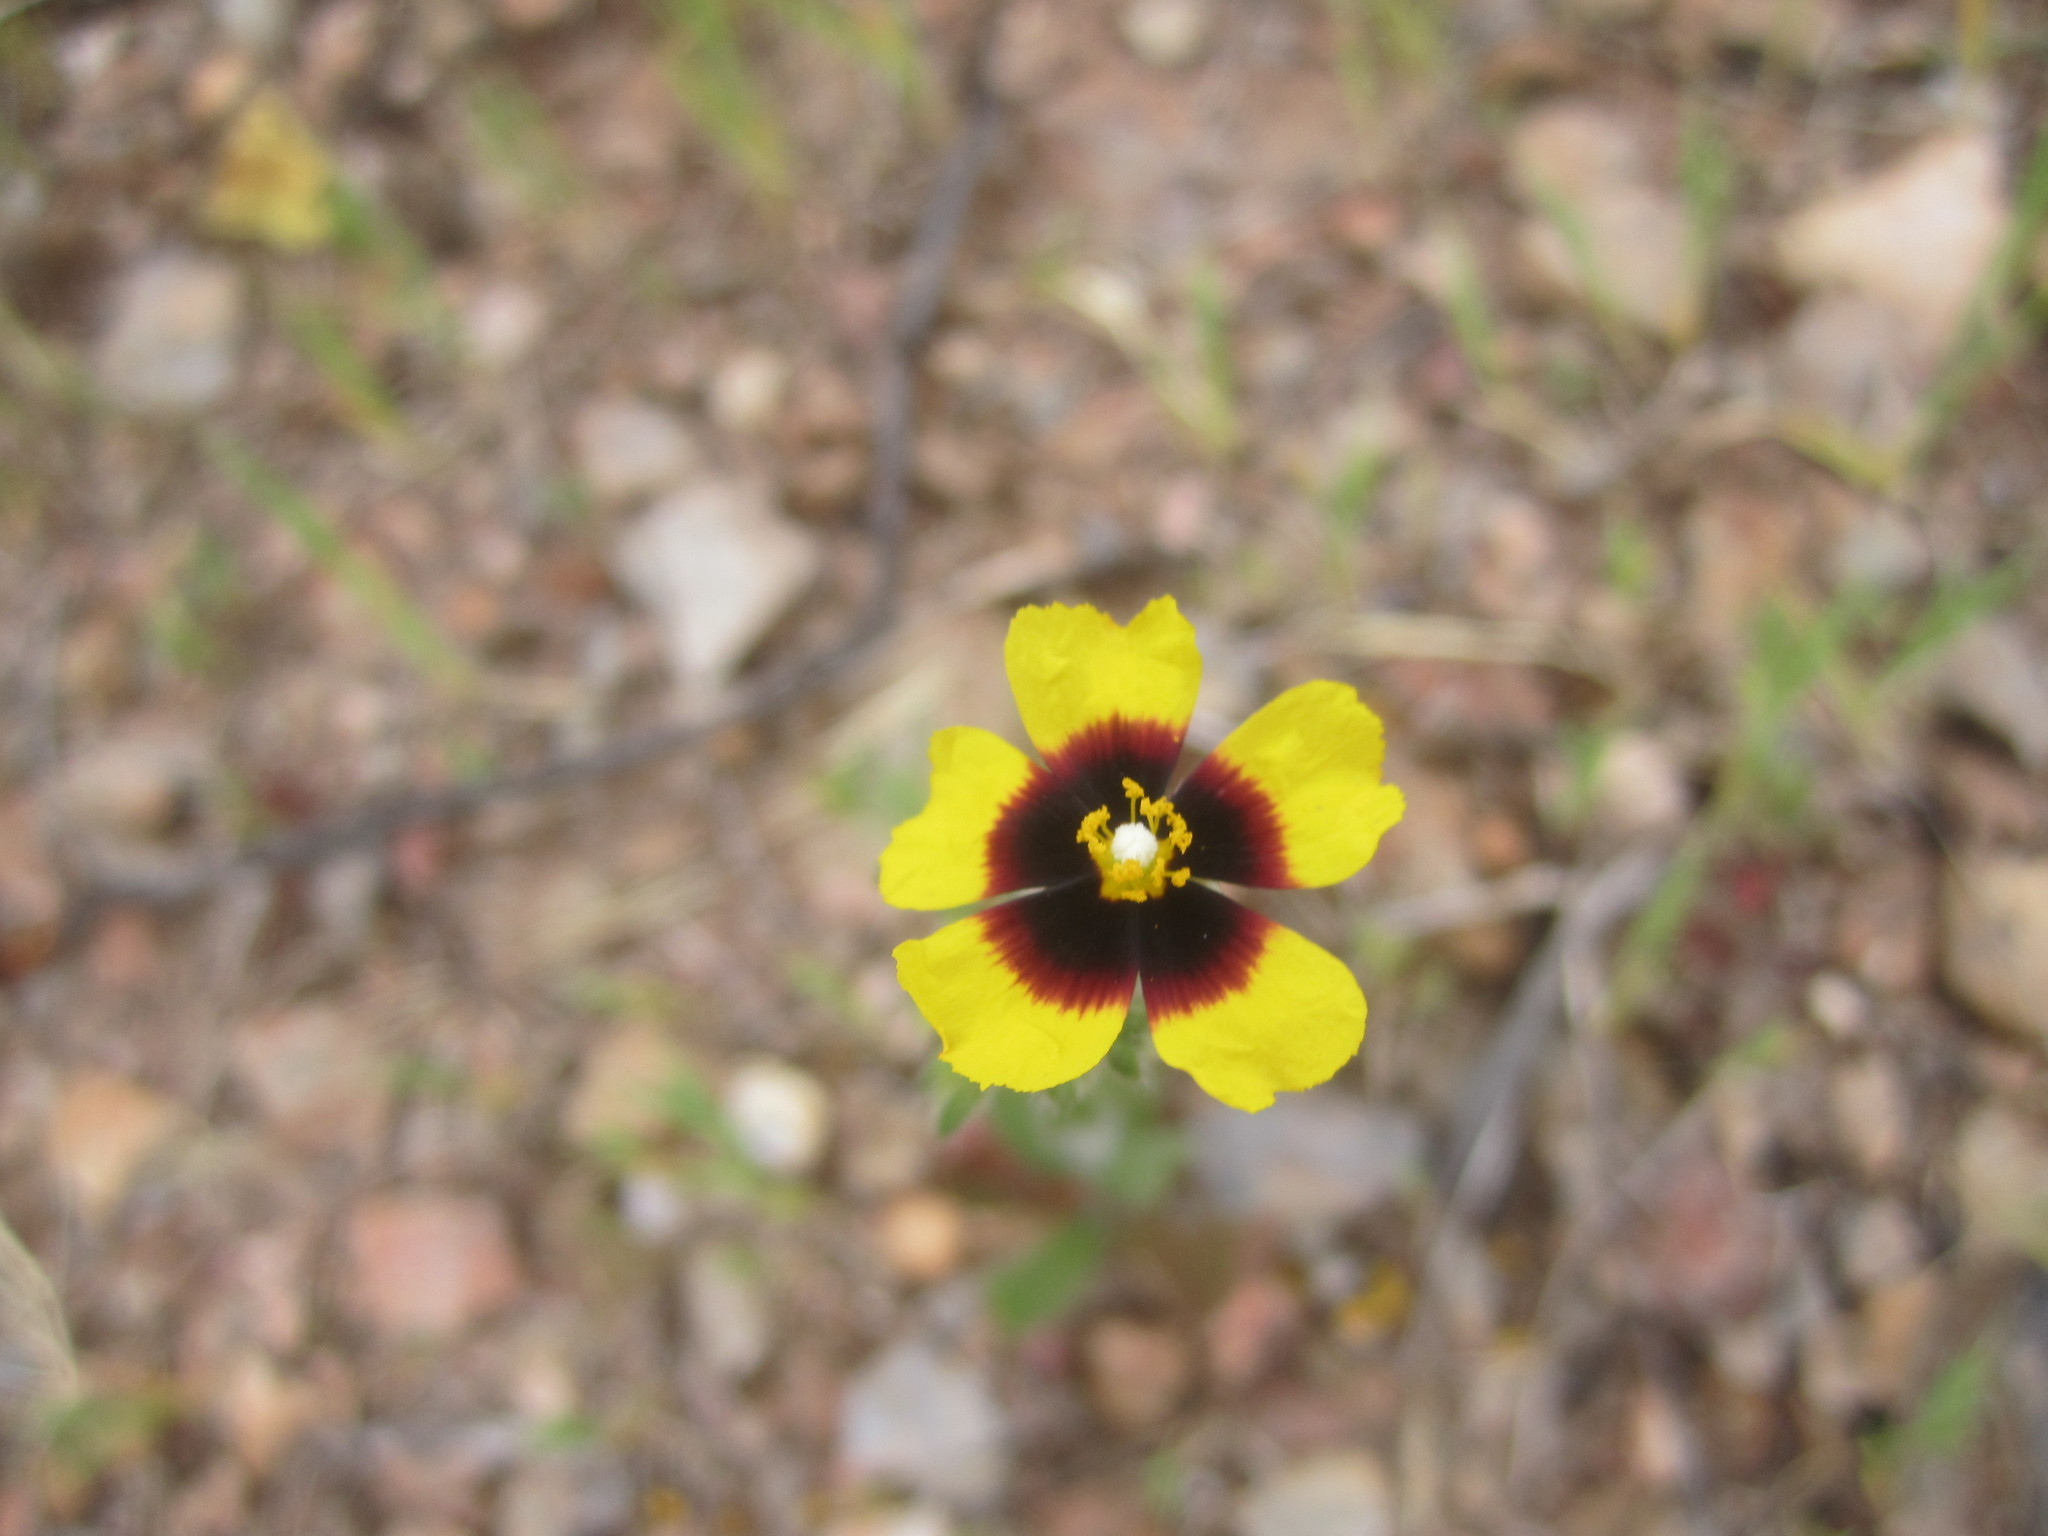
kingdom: Plantae
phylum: Tracheophyta
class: Magnoliopsida
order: Malvales
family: Cistaceae
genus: Tuberaria
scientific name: Tuberaria guttata
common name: Spotted rock-rose
